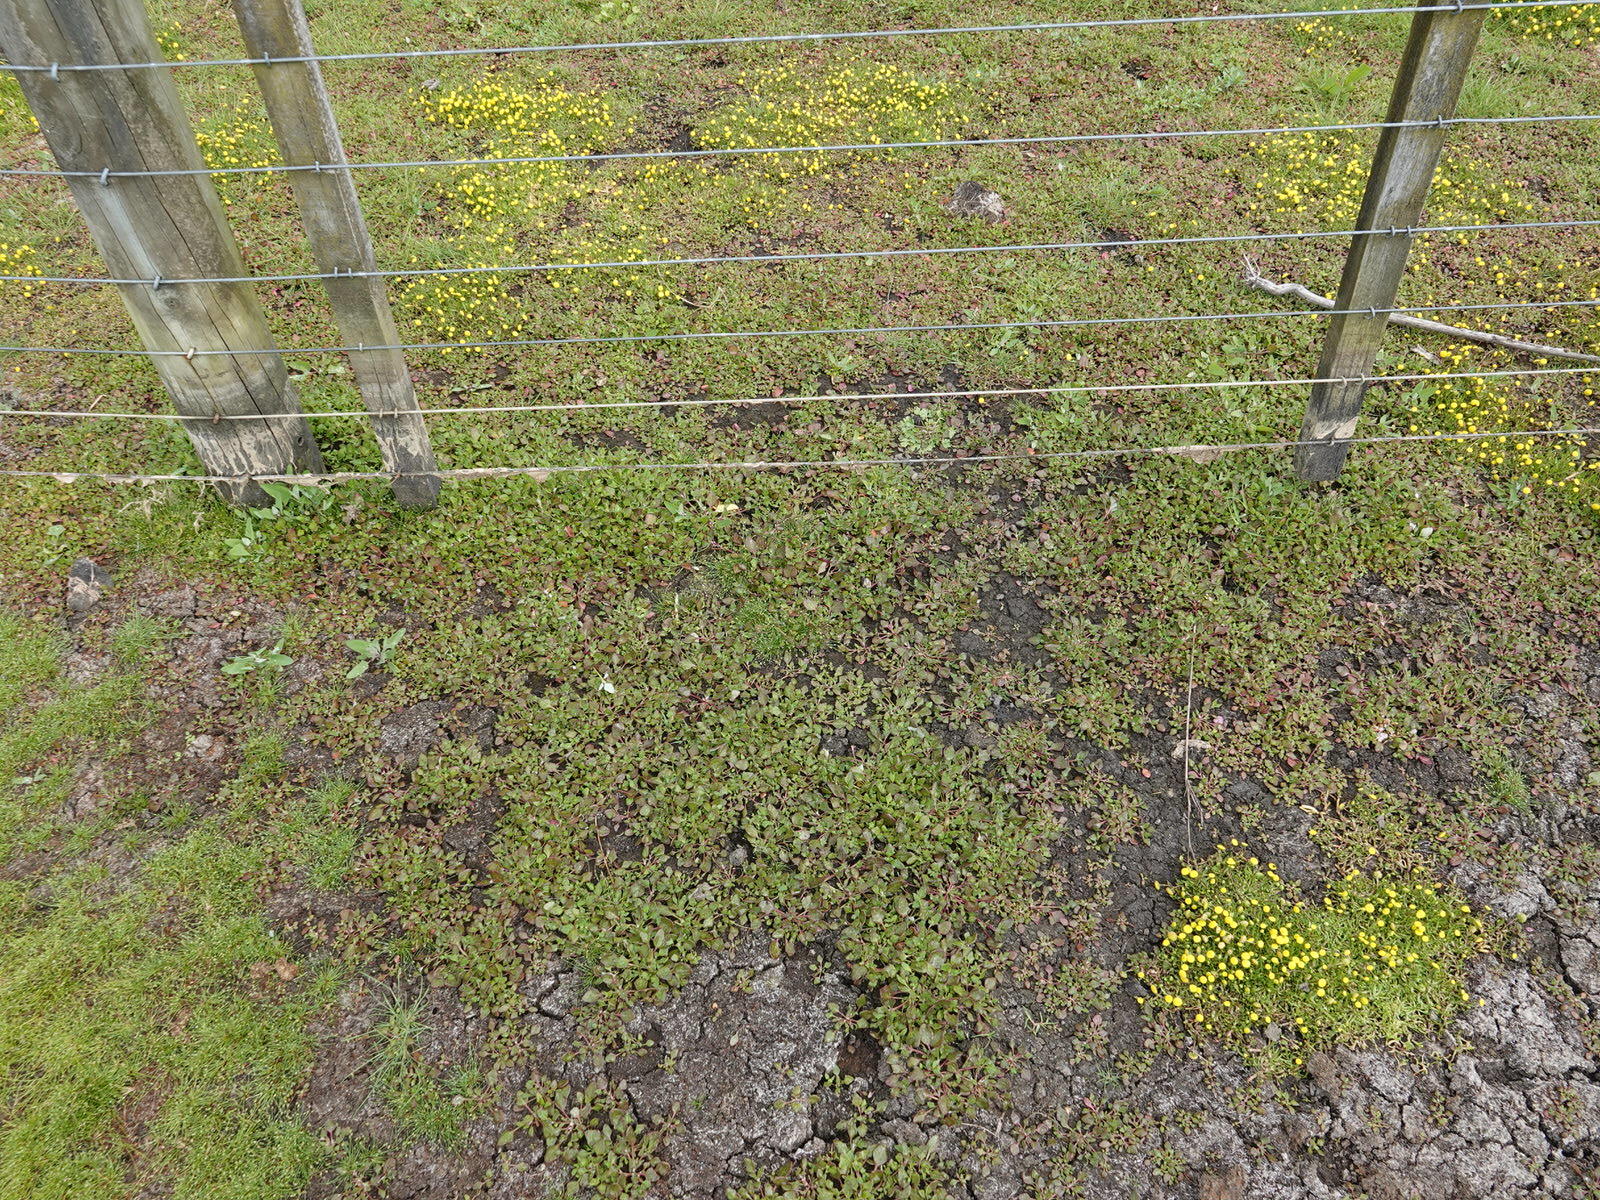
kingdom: Plantae
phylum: Tracheophyta
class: Magnoliopsida
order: Caryophyllales
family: Amaranthaceae
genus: Oxybasis
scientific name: Oxybasis ambigua
